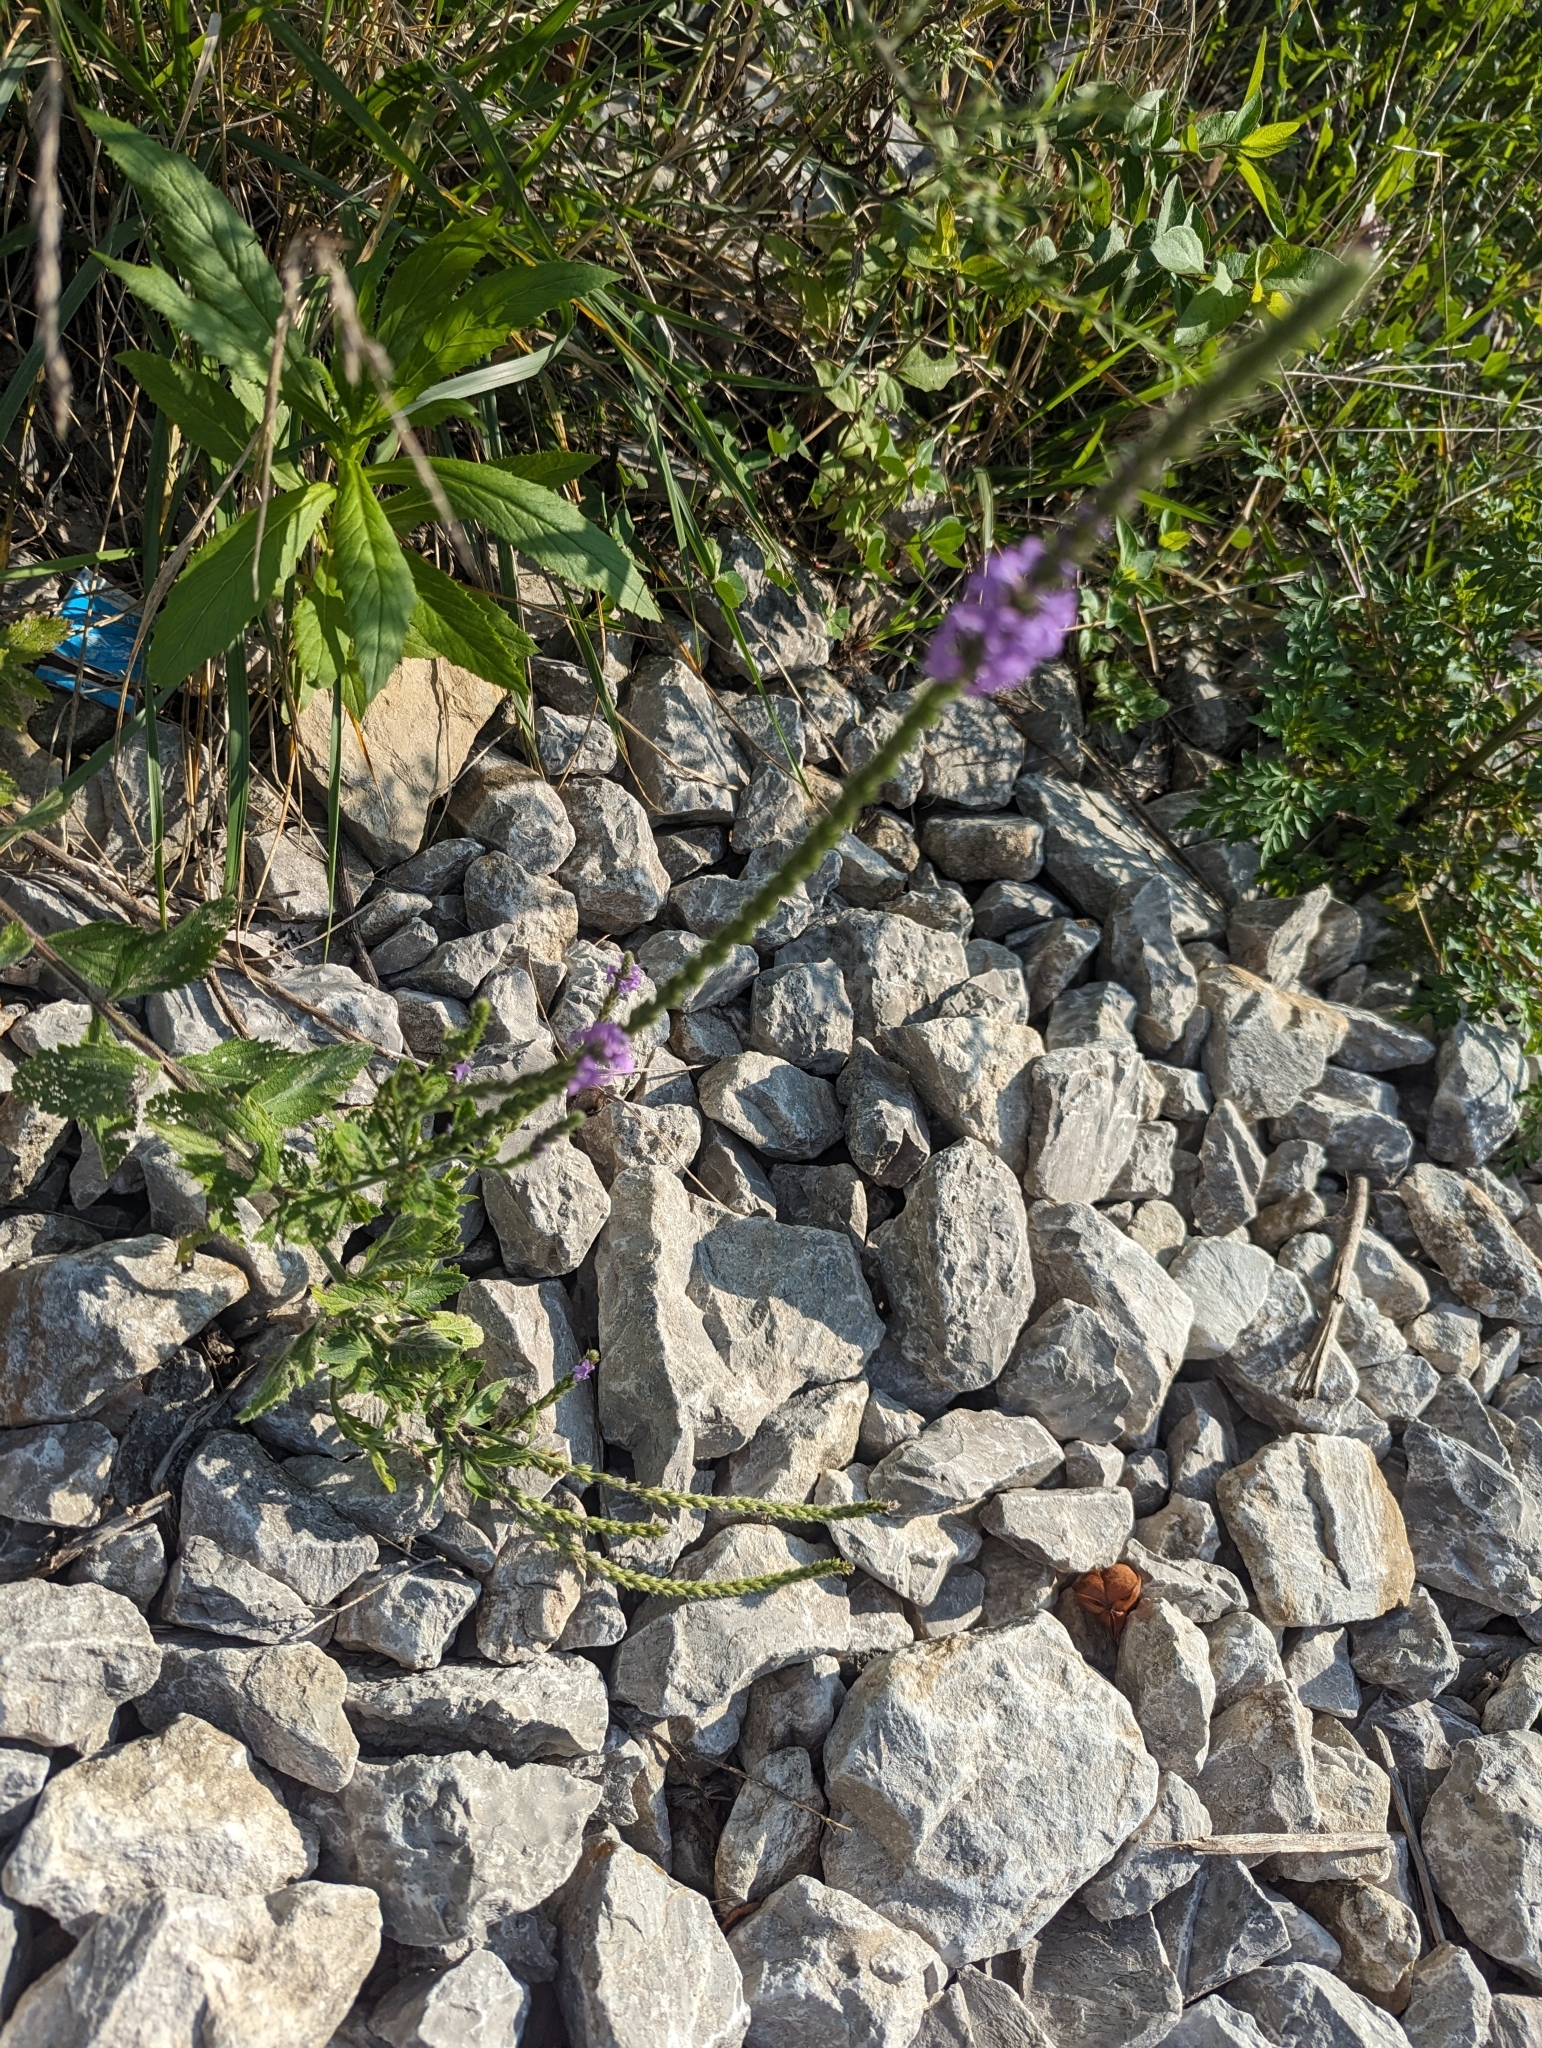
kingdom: Plantae
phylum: Tracheophyta
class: Magnoliopsida
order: Lamiales
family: Verbenaceae
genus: Verbena
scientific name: Verbena stricta
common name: Hoary vervain
